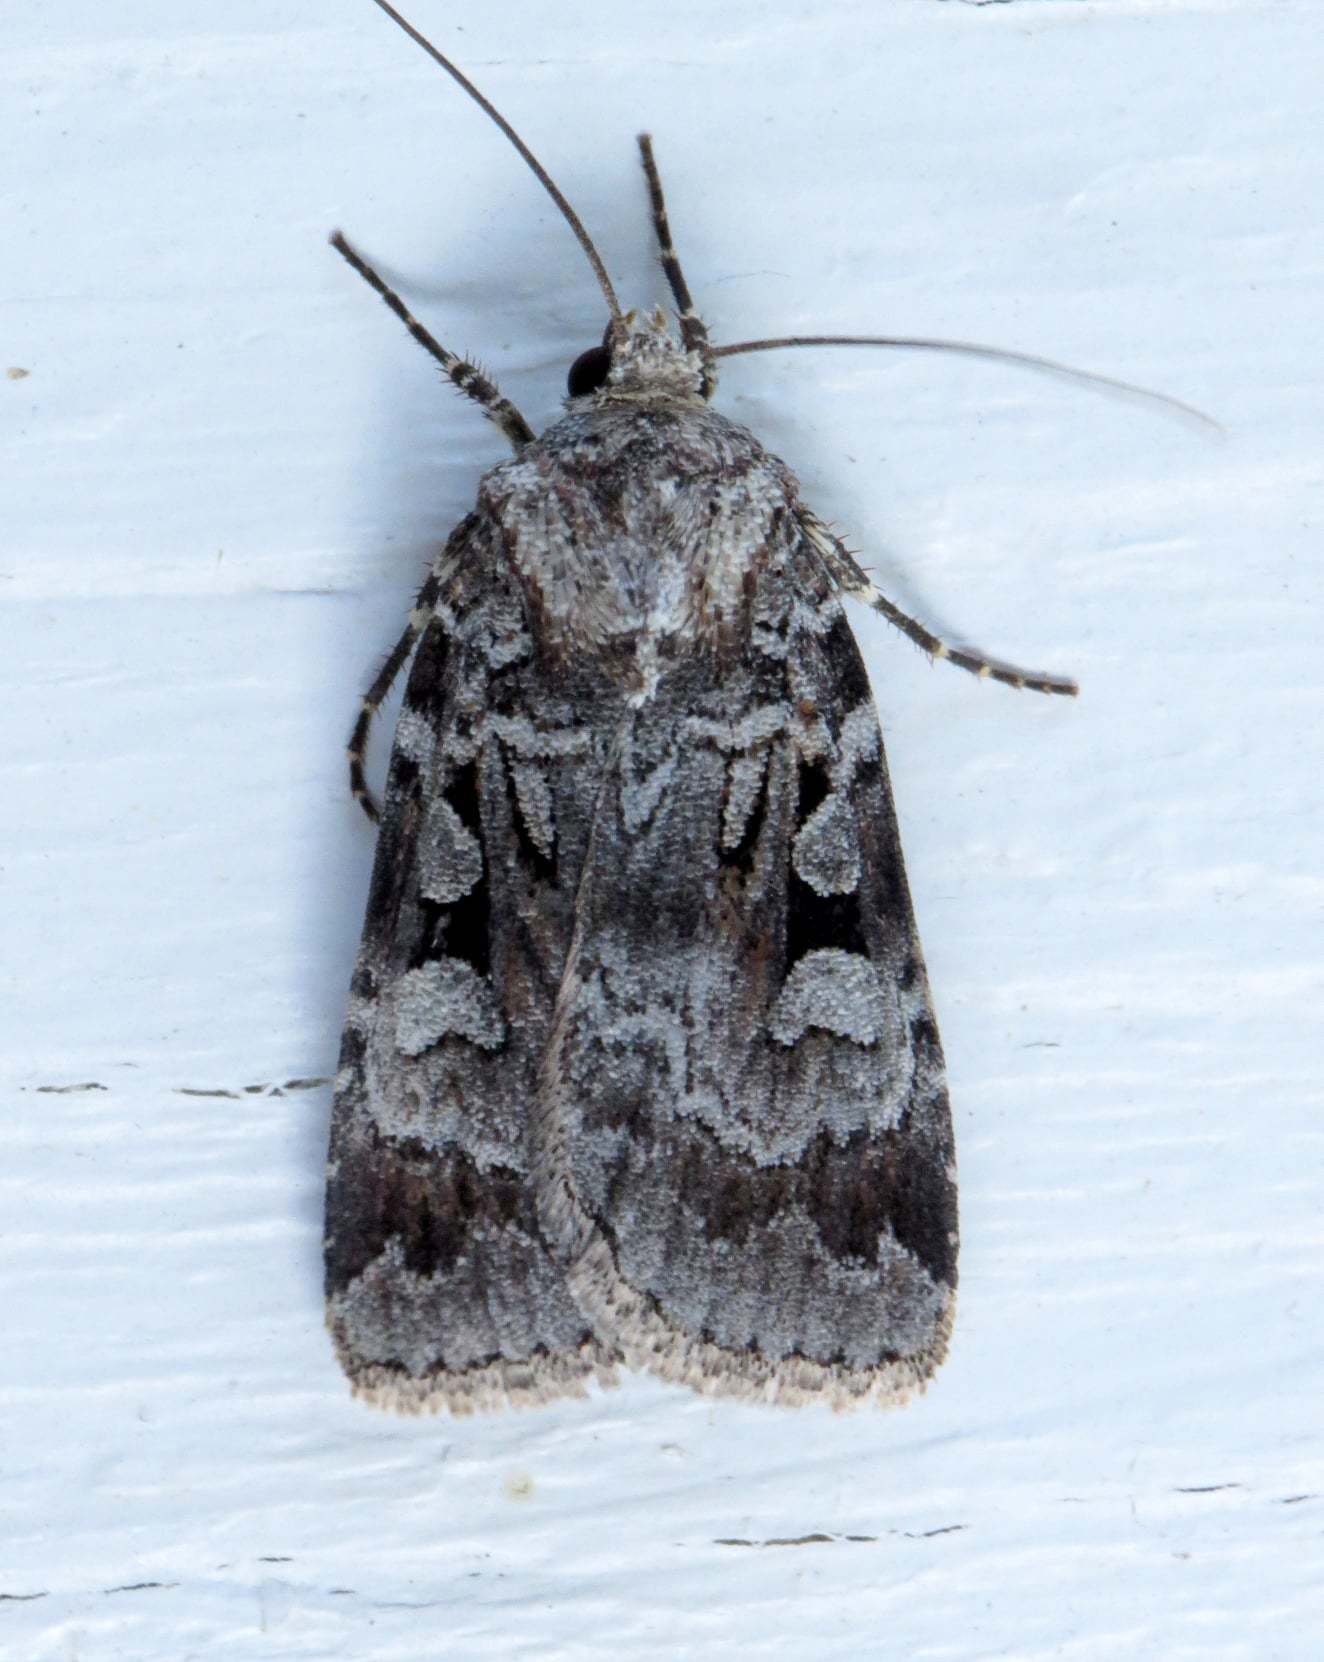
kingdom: Animalia
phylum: Arthropoda
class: Insecta
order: Lepidoptera
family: Noctuidae
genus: Feltia
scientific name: Feltia geniculata
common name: Knee-joint dart
